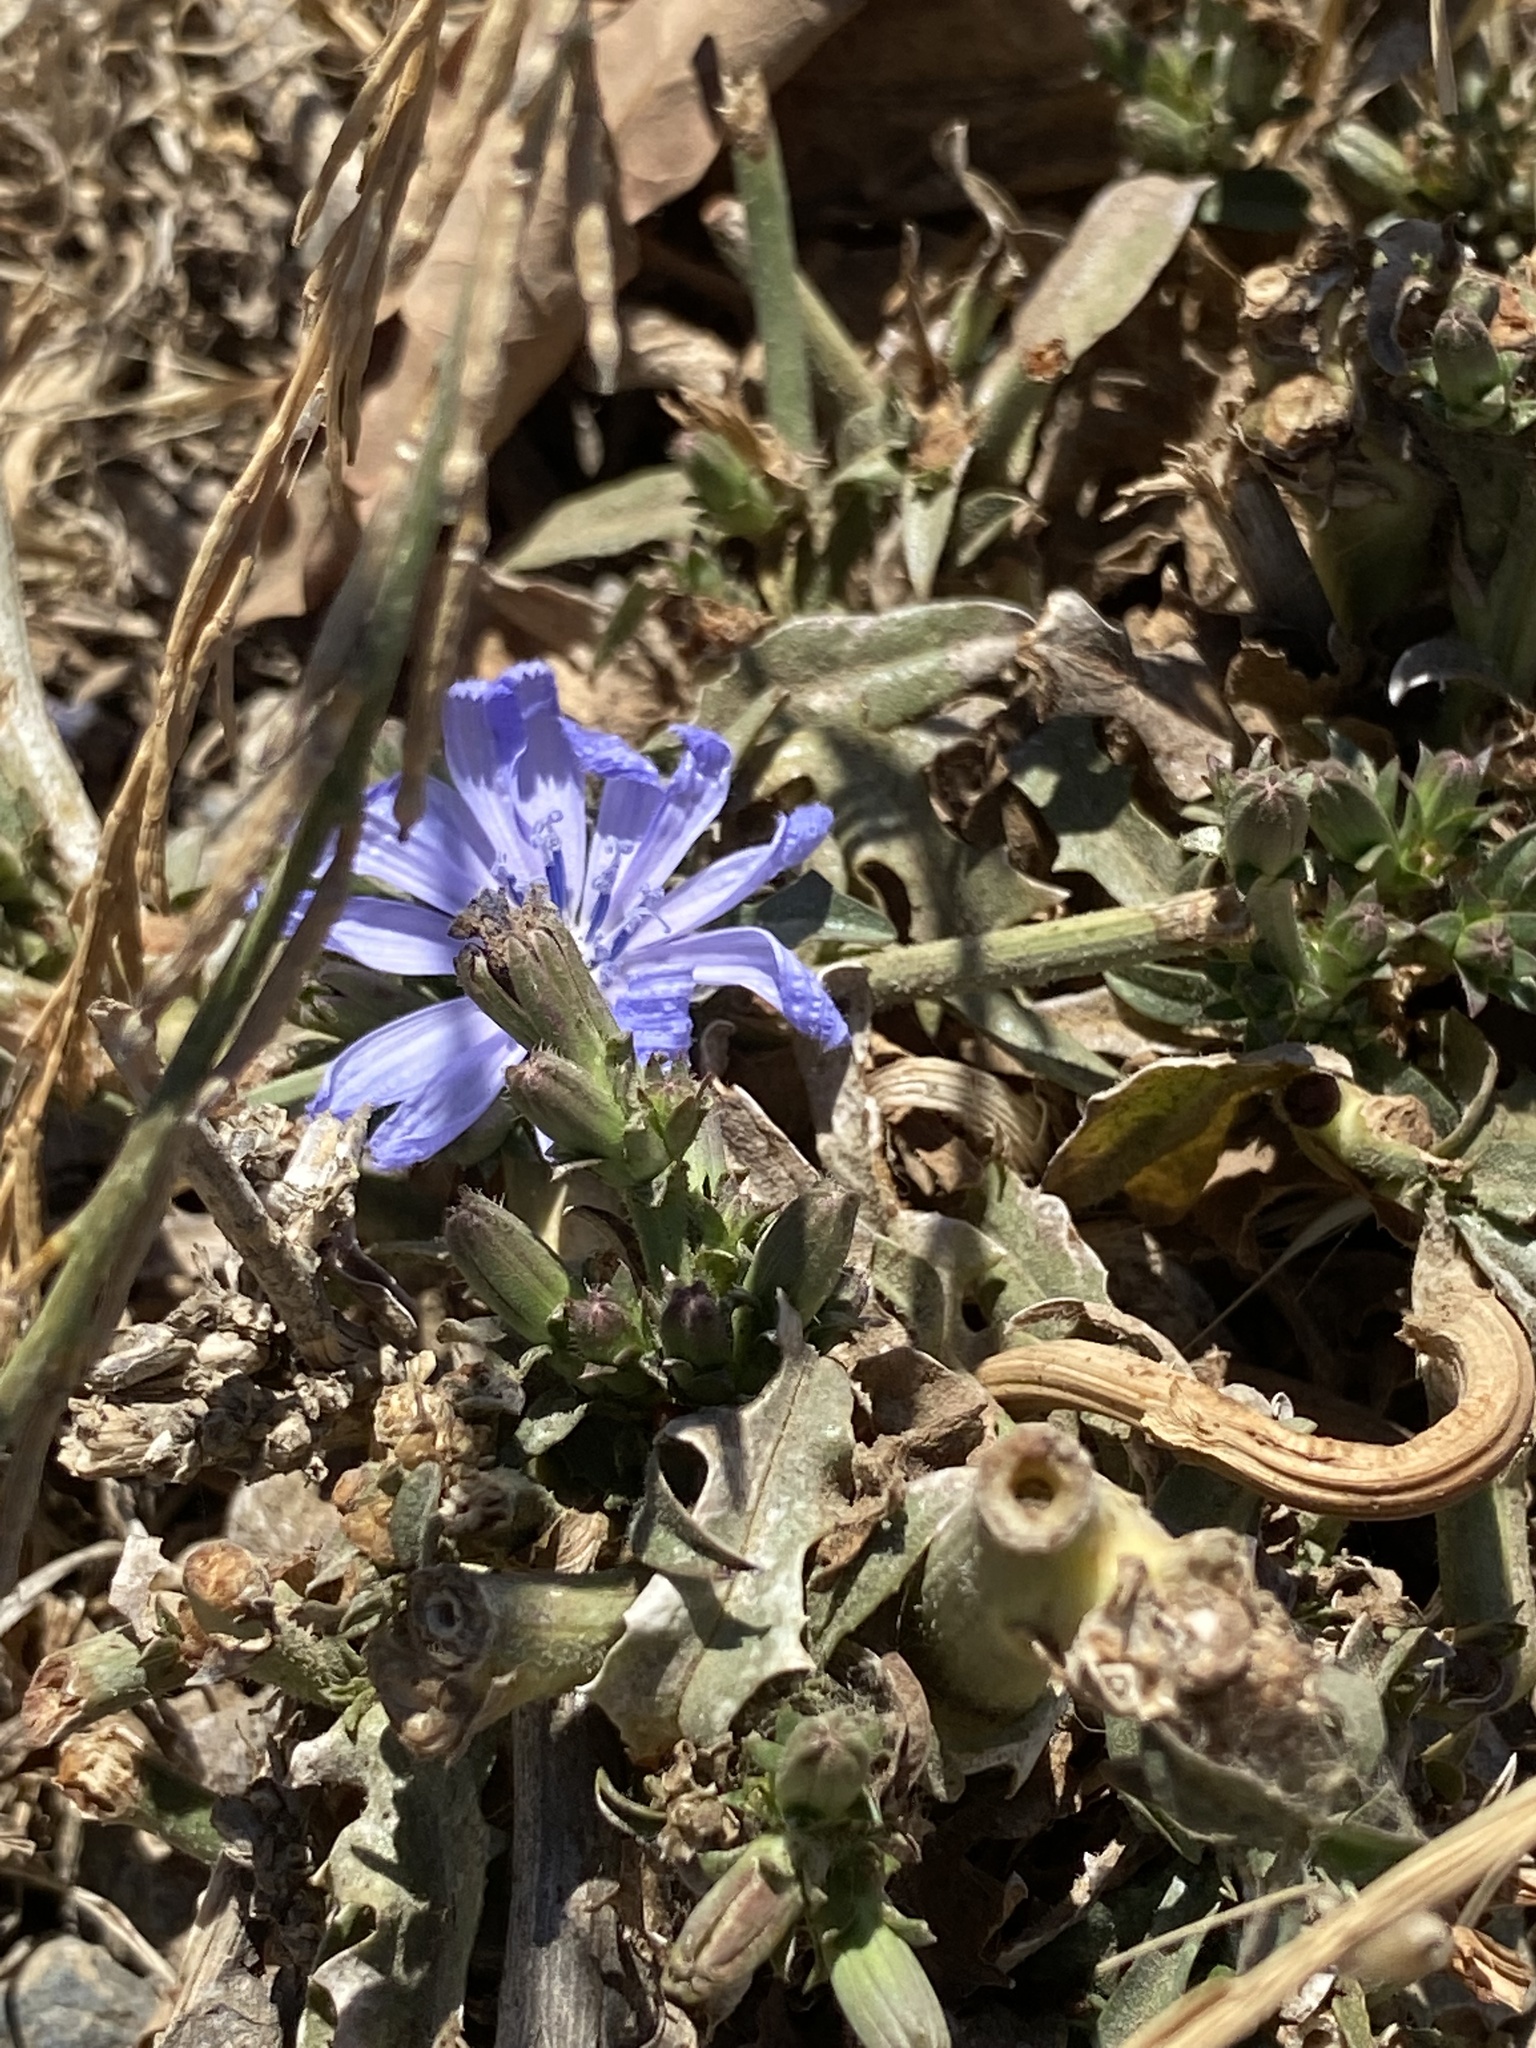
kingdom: Plantae
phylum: Tracheophyta
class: Magnoliopsida
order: Asterales
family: Asteraceae
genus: Cichorium
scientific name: Cichorium intybus
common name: Chicory
